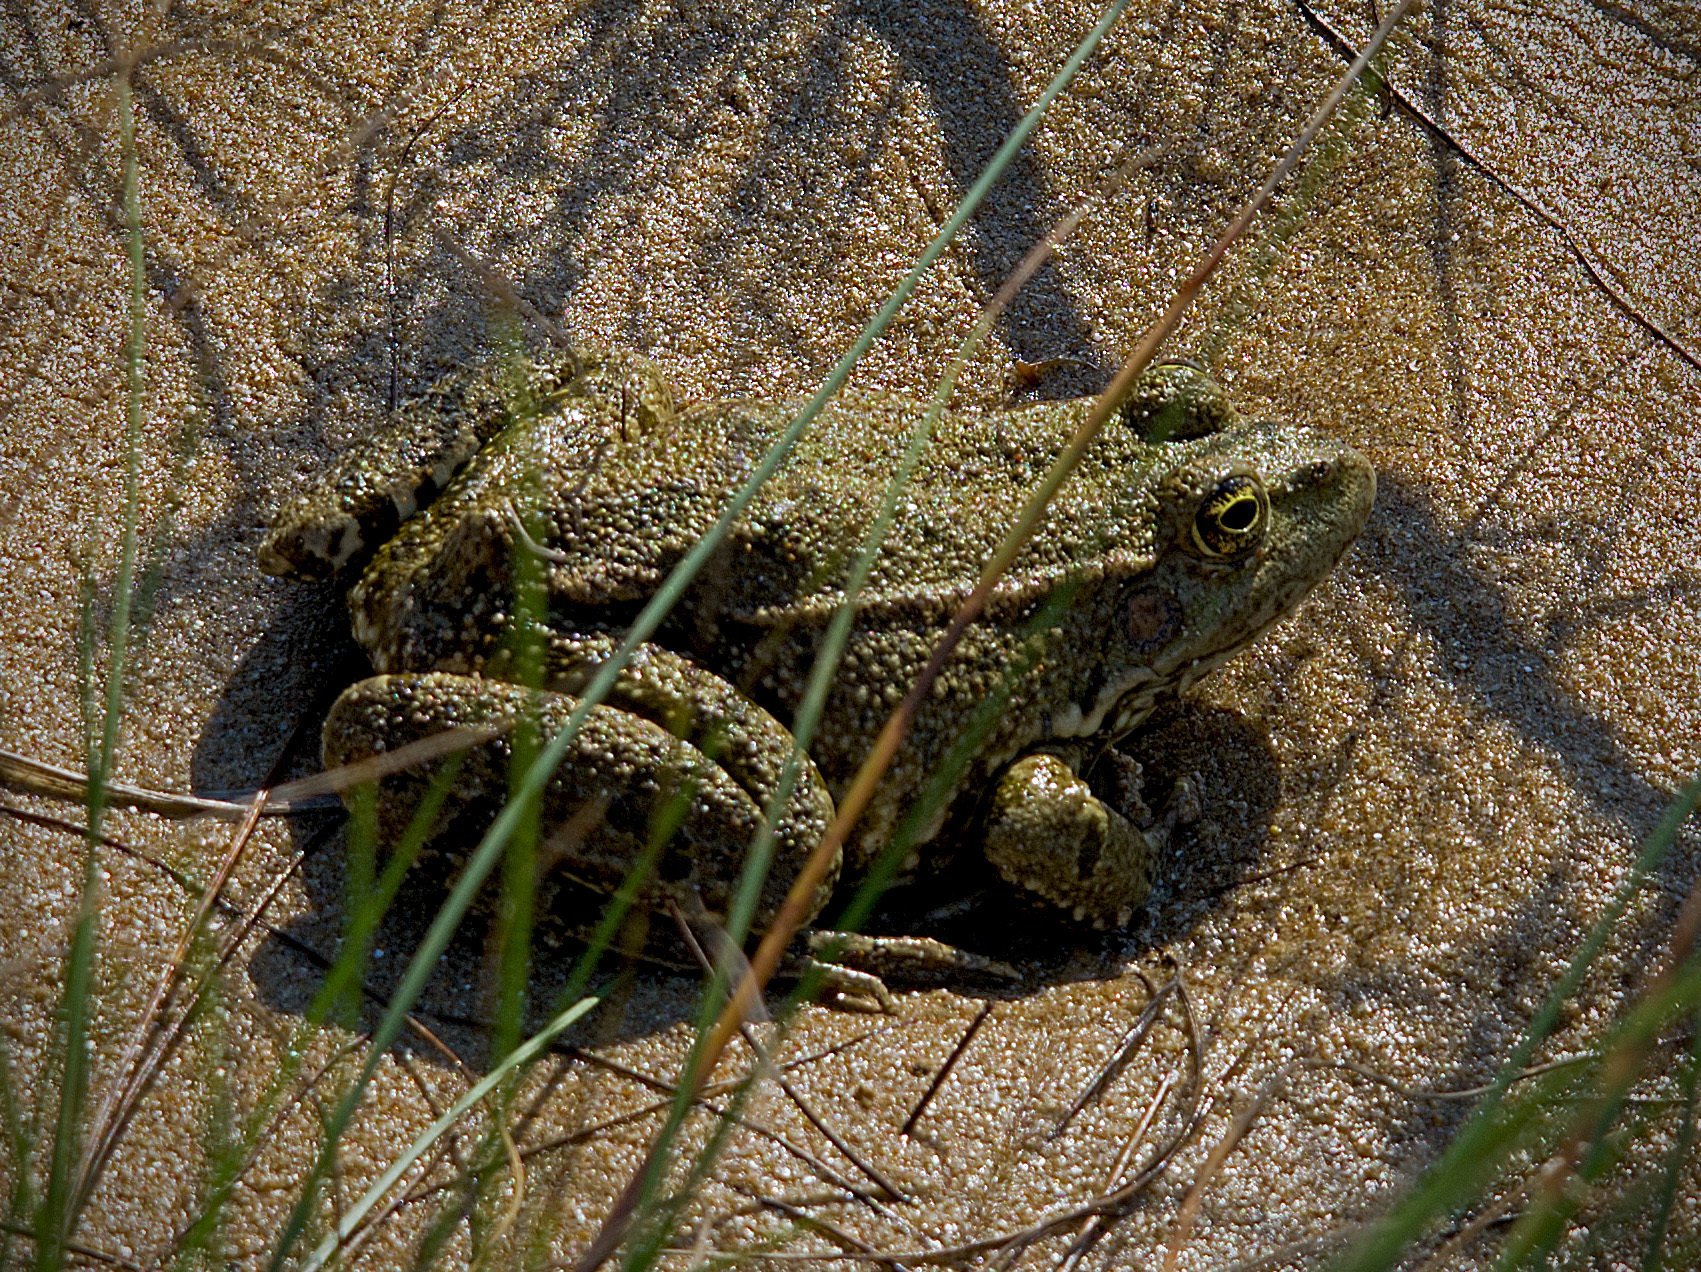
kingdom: Animalia
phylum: Chordata
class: Amphibia
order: Anura
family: Ranidae
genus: Pelophylax
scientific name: Pelophylax
